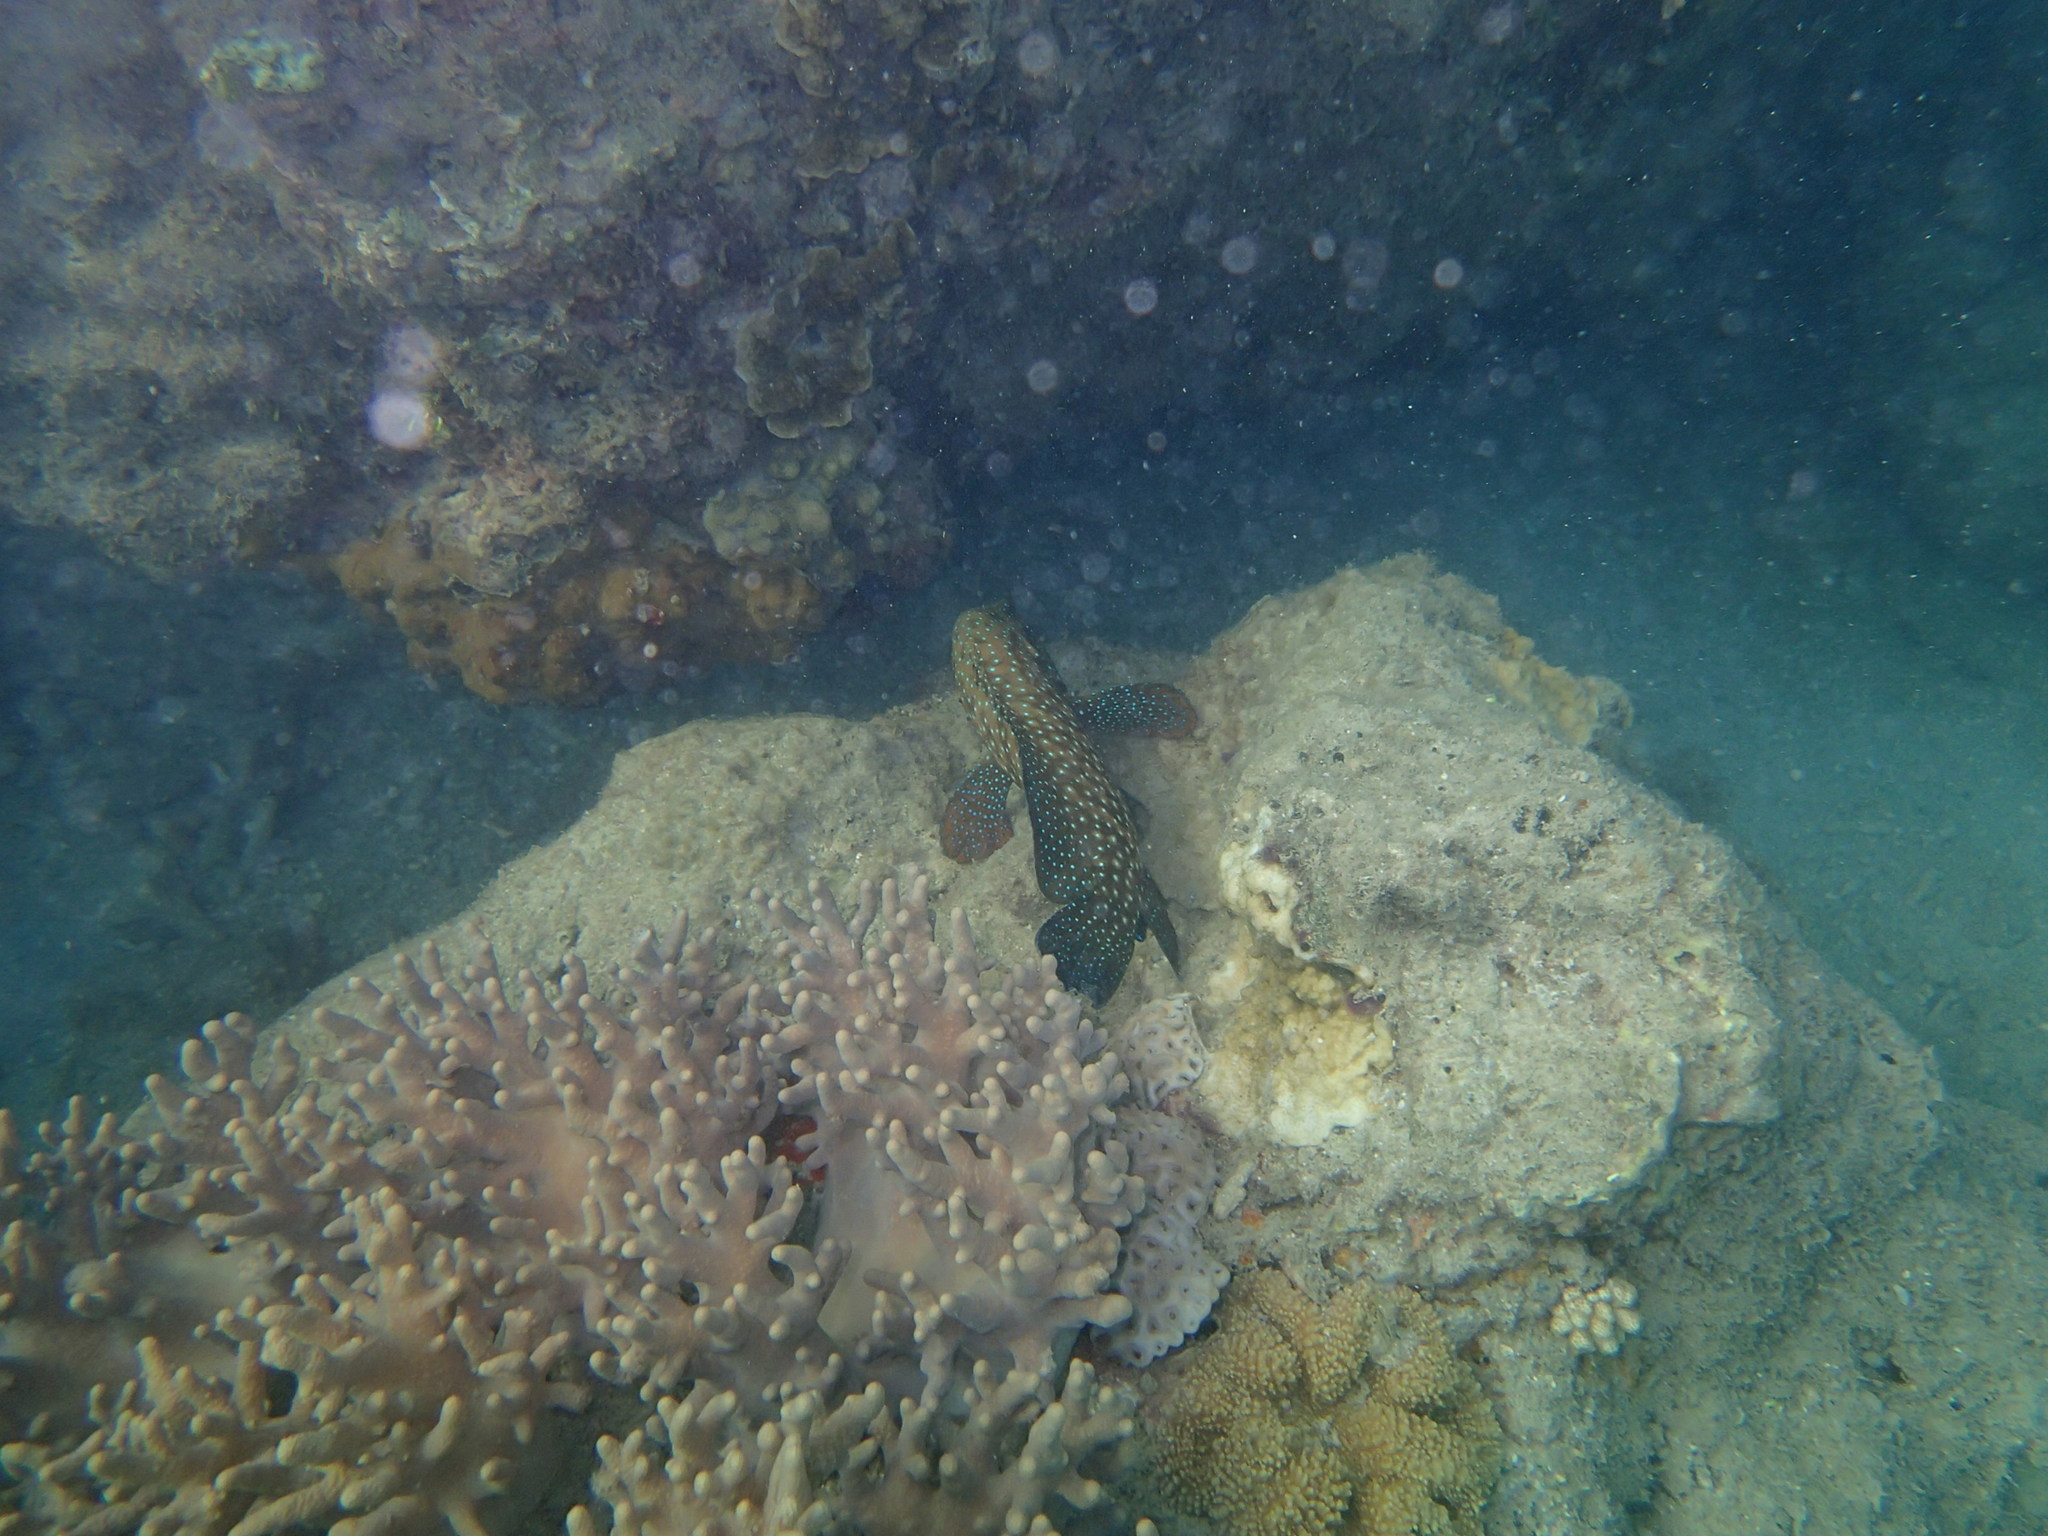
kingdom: Animalia
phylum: Chordata
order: Perciformes
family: Serranidae
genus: Cephalopholis
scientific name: Cephalopholis cyanostigma
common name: Bluespotted hind
